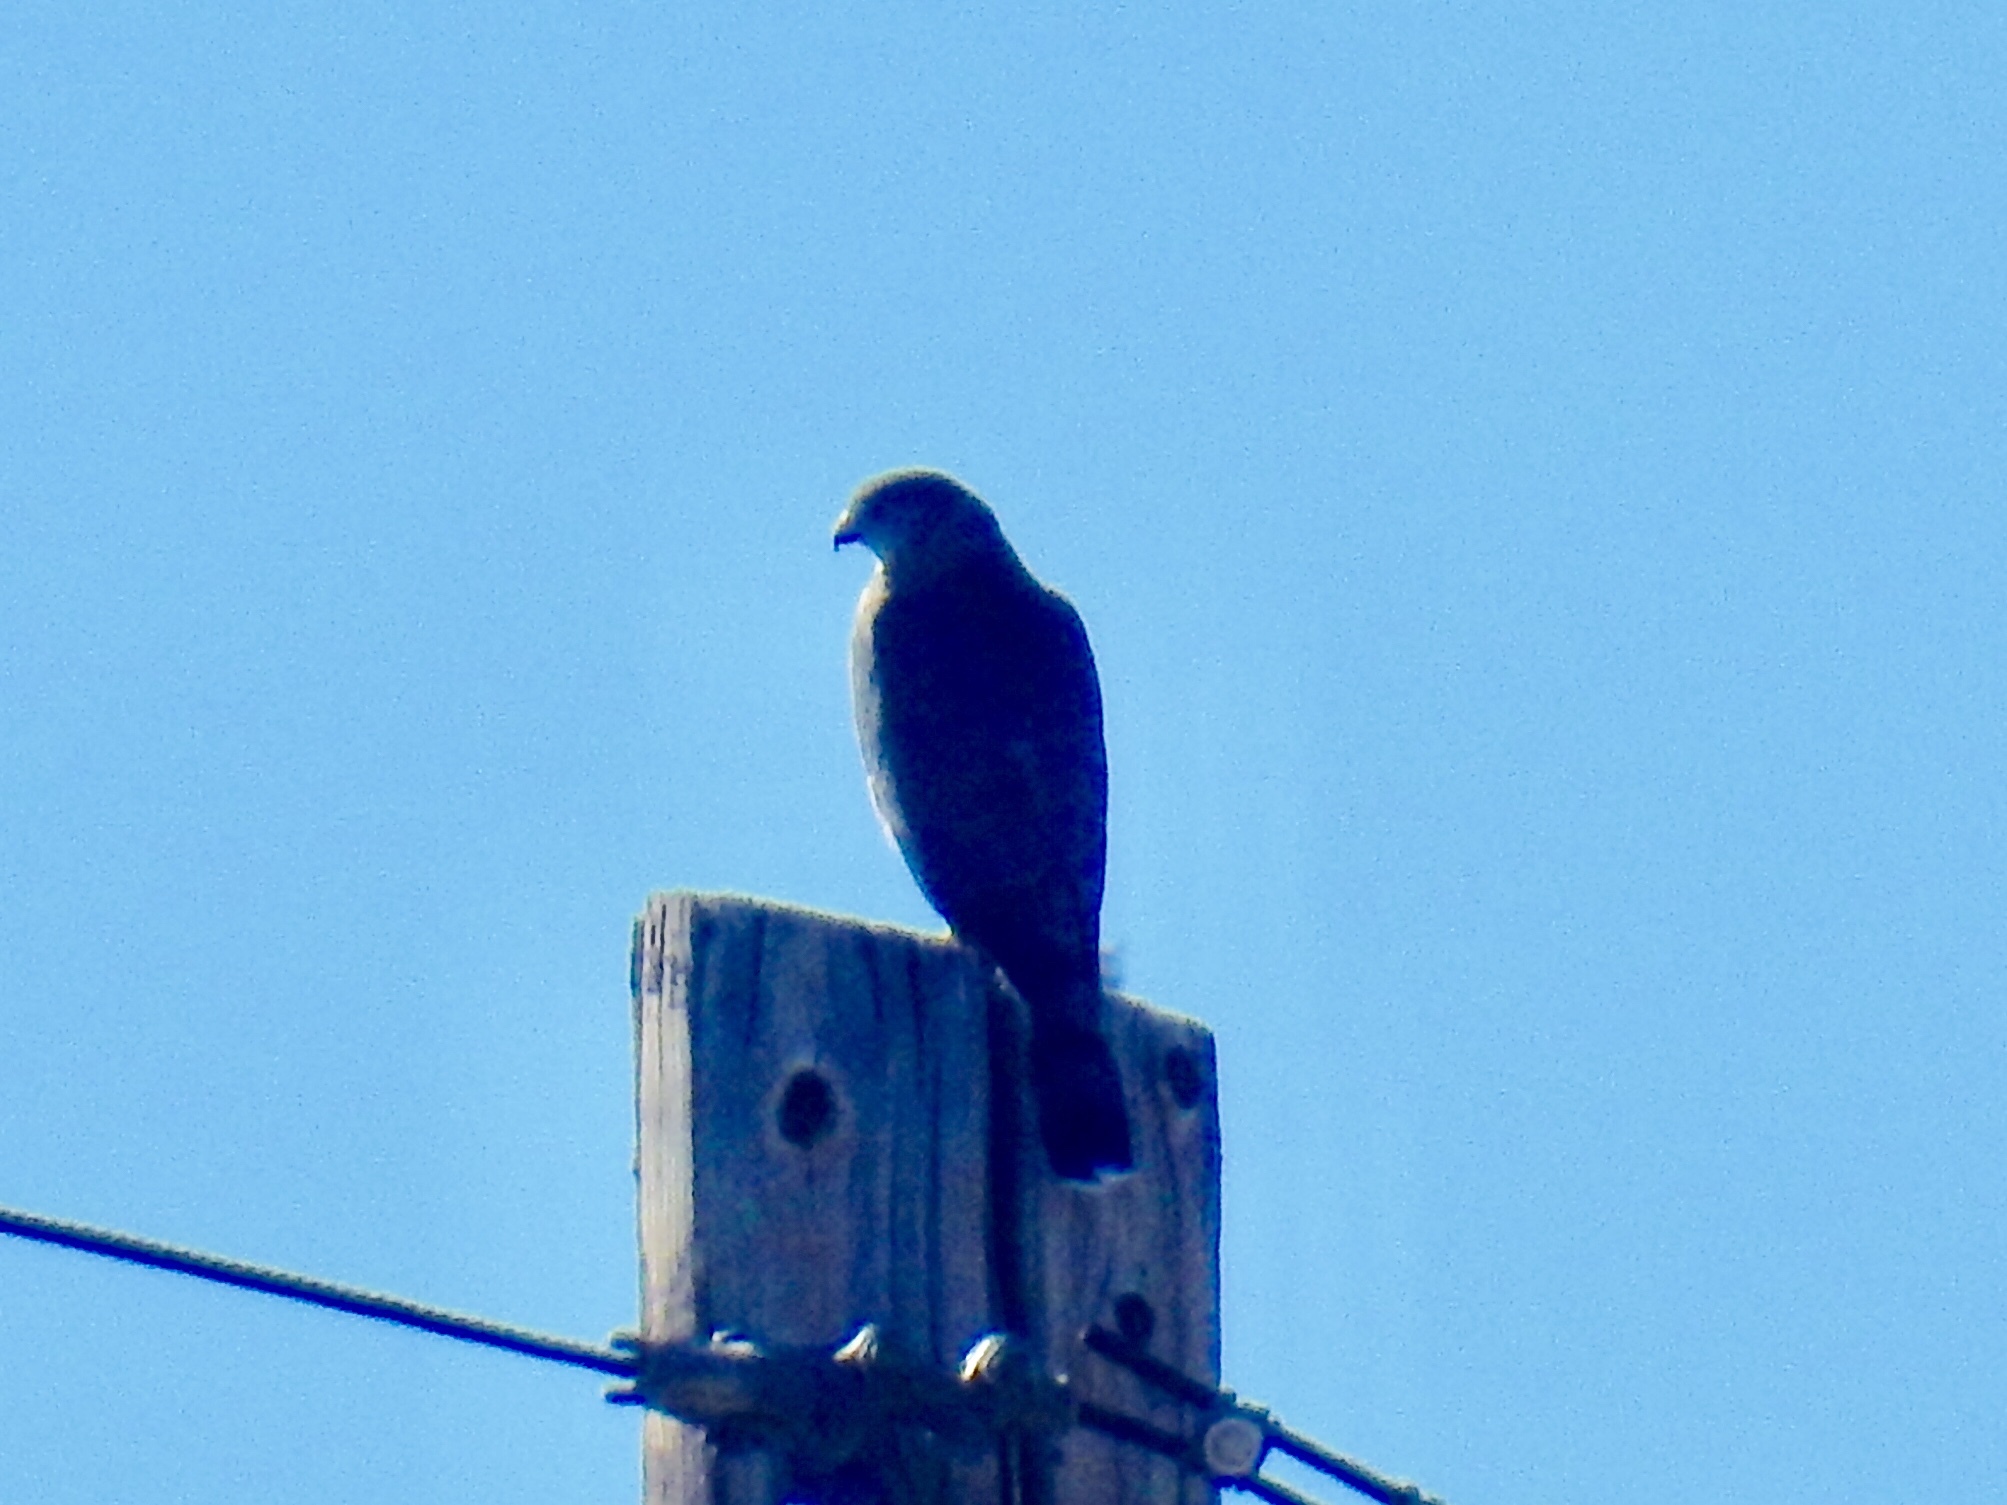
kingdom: Animalia
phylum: Chordata
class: Aves
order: Accipitriformes
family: Accipitridae
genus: Accipiter
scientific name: Accipiter cooperii
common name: Cooper's hawk
